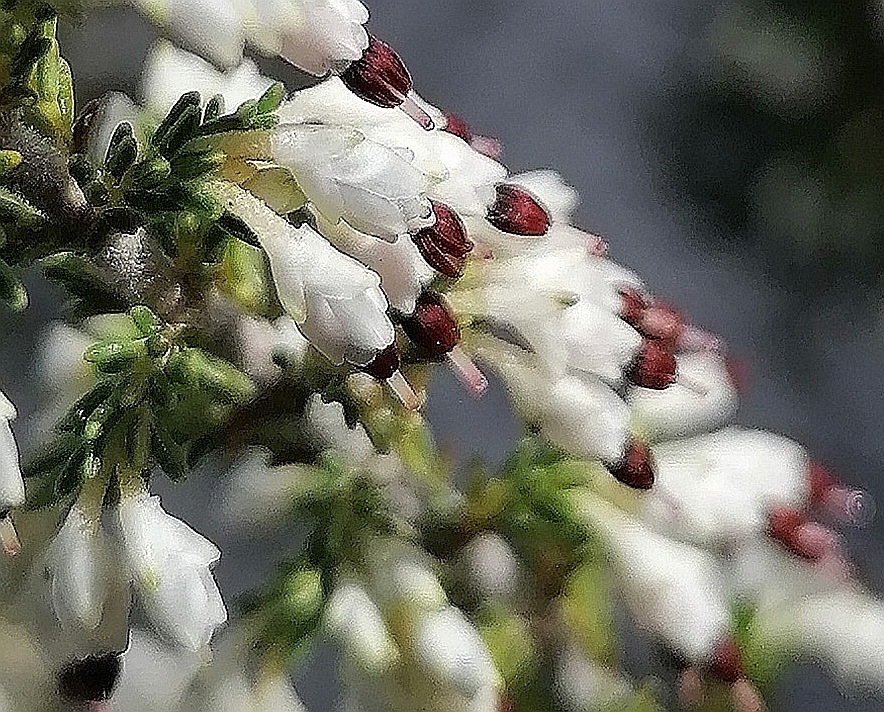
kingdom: Plantae
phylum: Tracheophyta
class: Magnoliopsida
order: Ericales
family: Ericaceae
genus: Erica
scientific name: Erica imbricata
